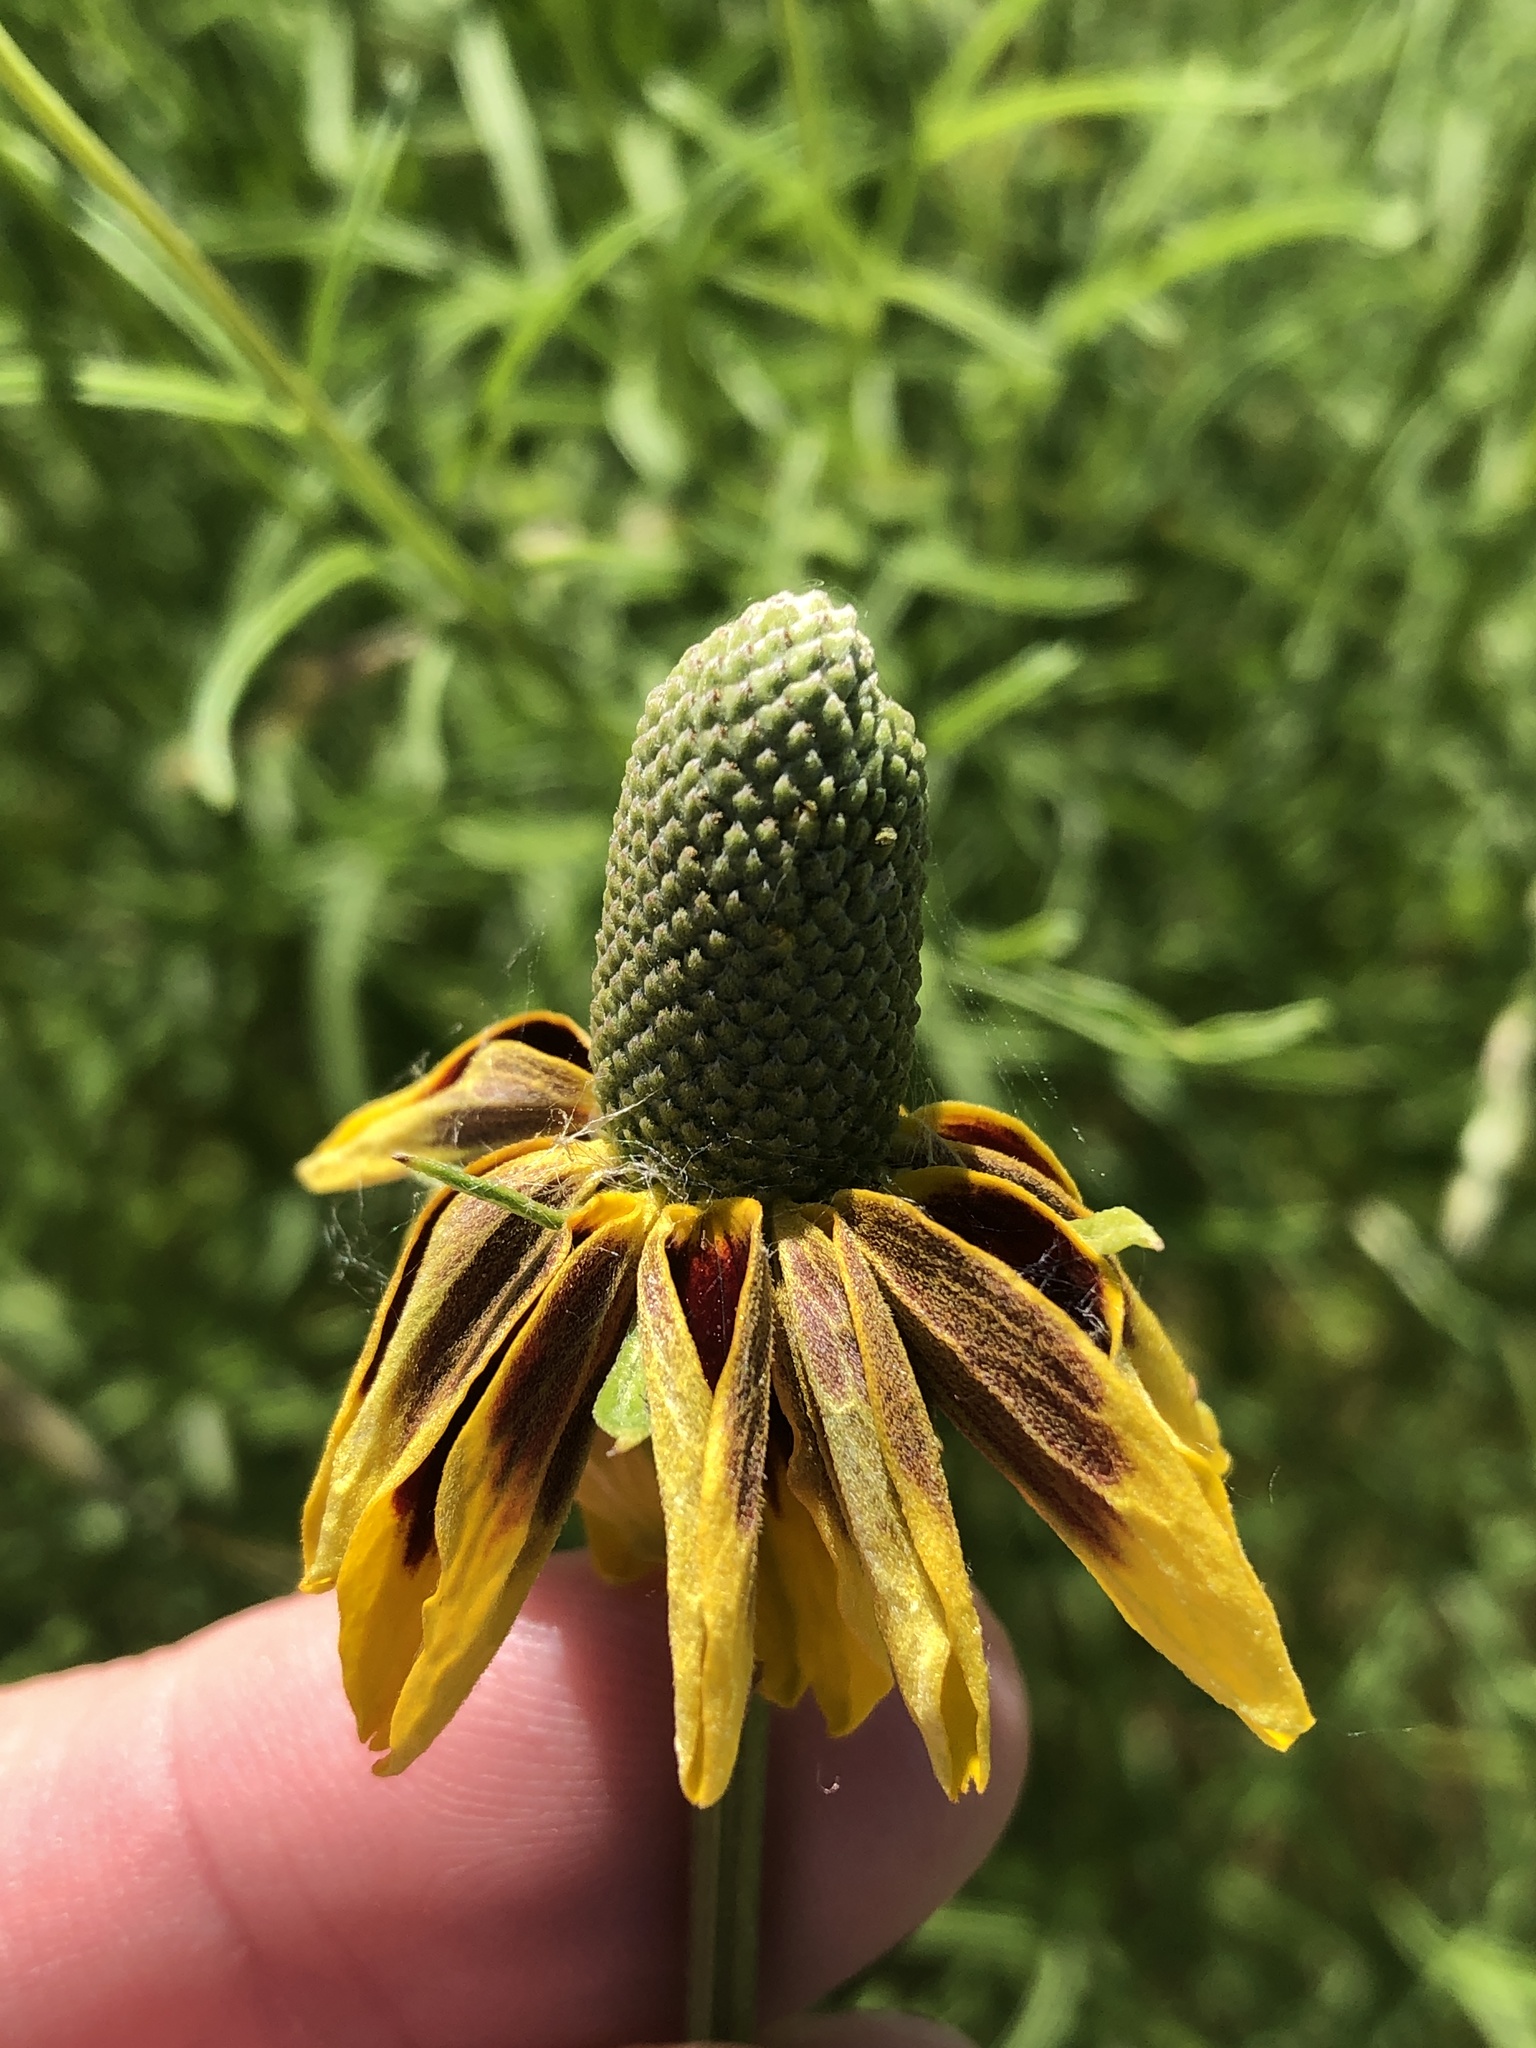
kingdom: Plantae
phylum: Tracheophyta
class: Magnoliopsida
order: Asterales
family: Asteraceae
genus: Ratibida
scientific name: Ratibida columnifera
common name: Prairie coneflower
